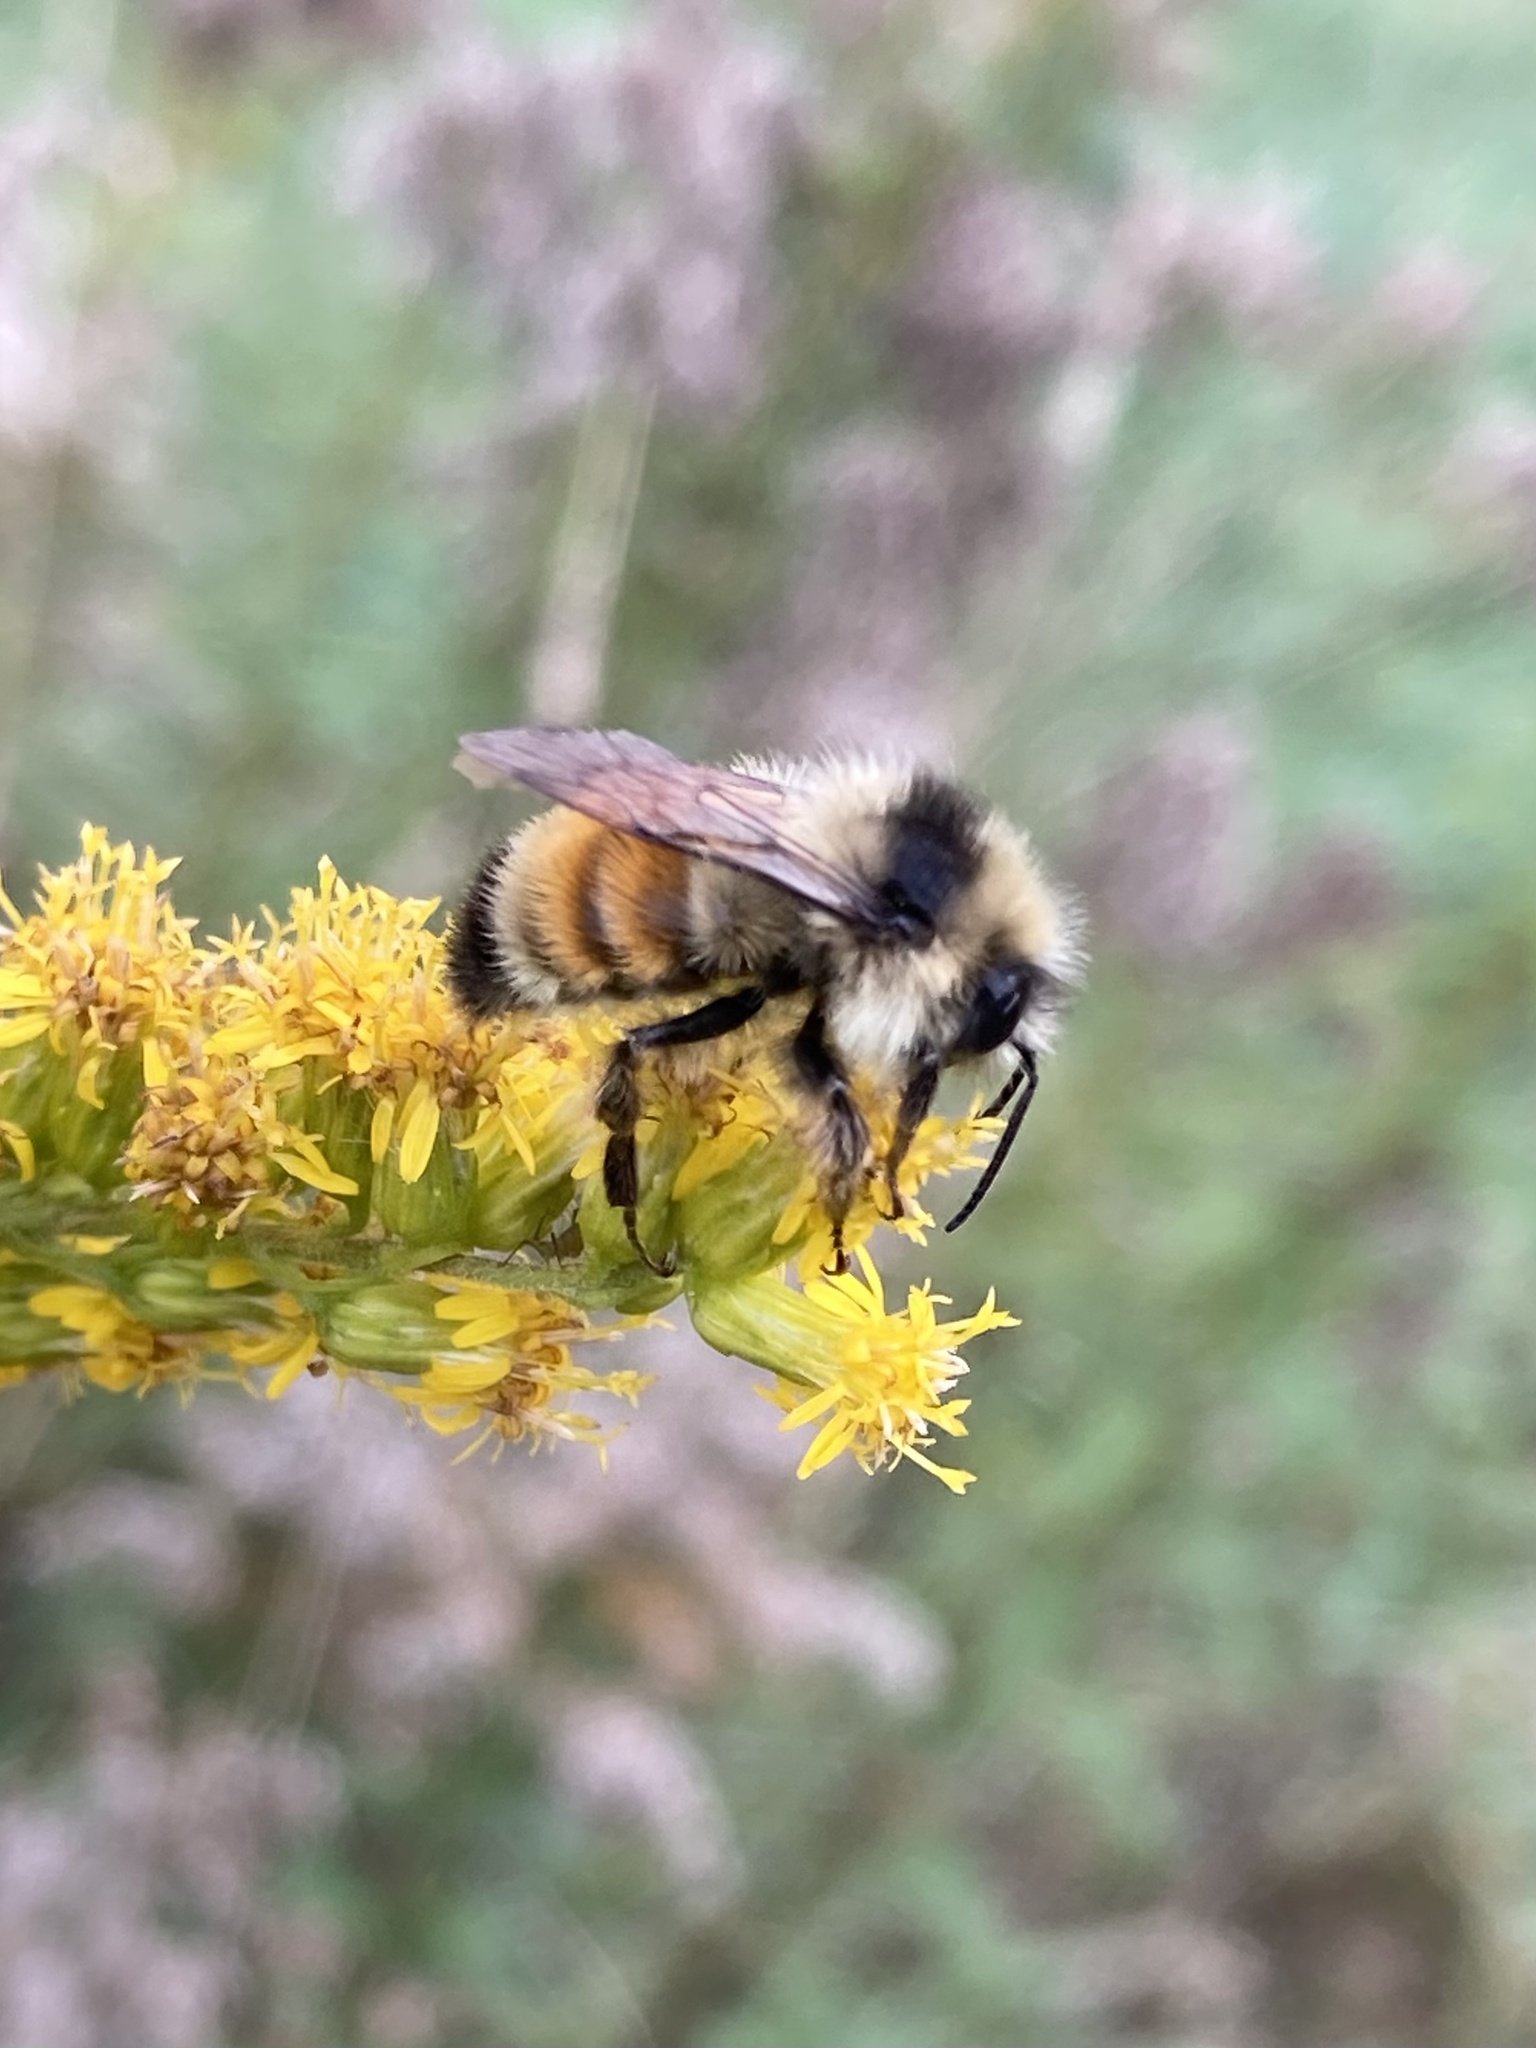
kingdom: Animalia
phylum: Arthropoda
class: Insecta
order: Hymenoptera
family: Apidae
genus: Bombus
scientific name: Bombus ternarius
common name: Tri-colored bumble bee
